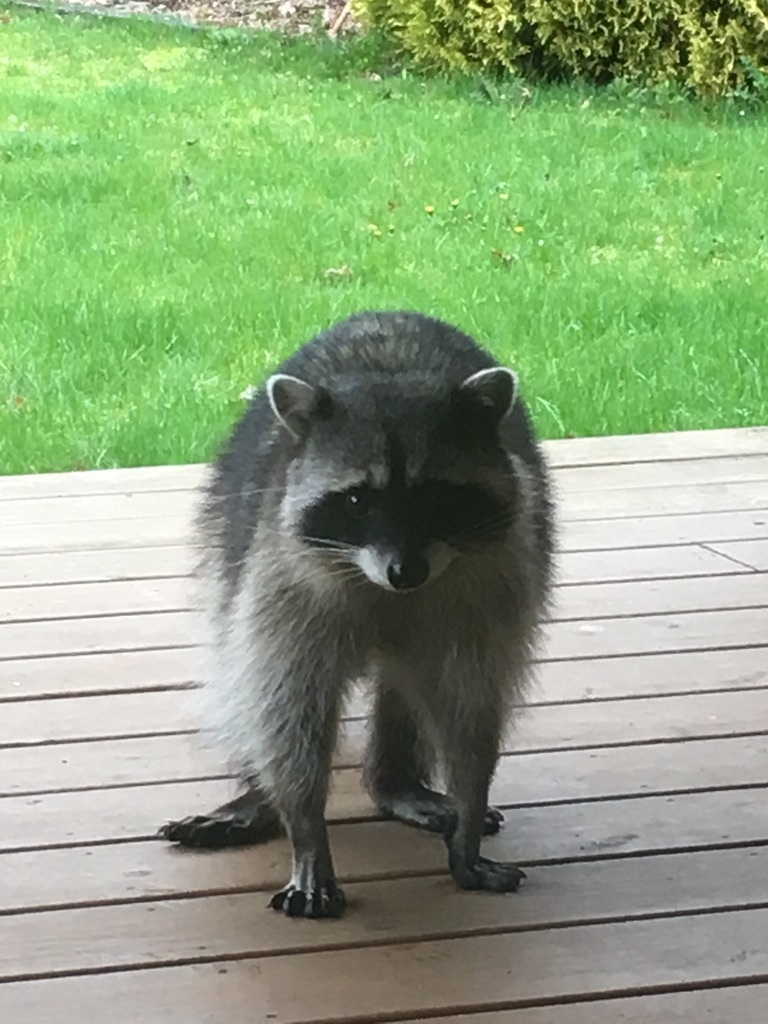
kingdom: Animalia
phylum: Chordata
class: Mammalia
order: Carnivora
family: Procyonidae
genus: Procyon
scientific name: Procyon lotor
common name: Raccoon
